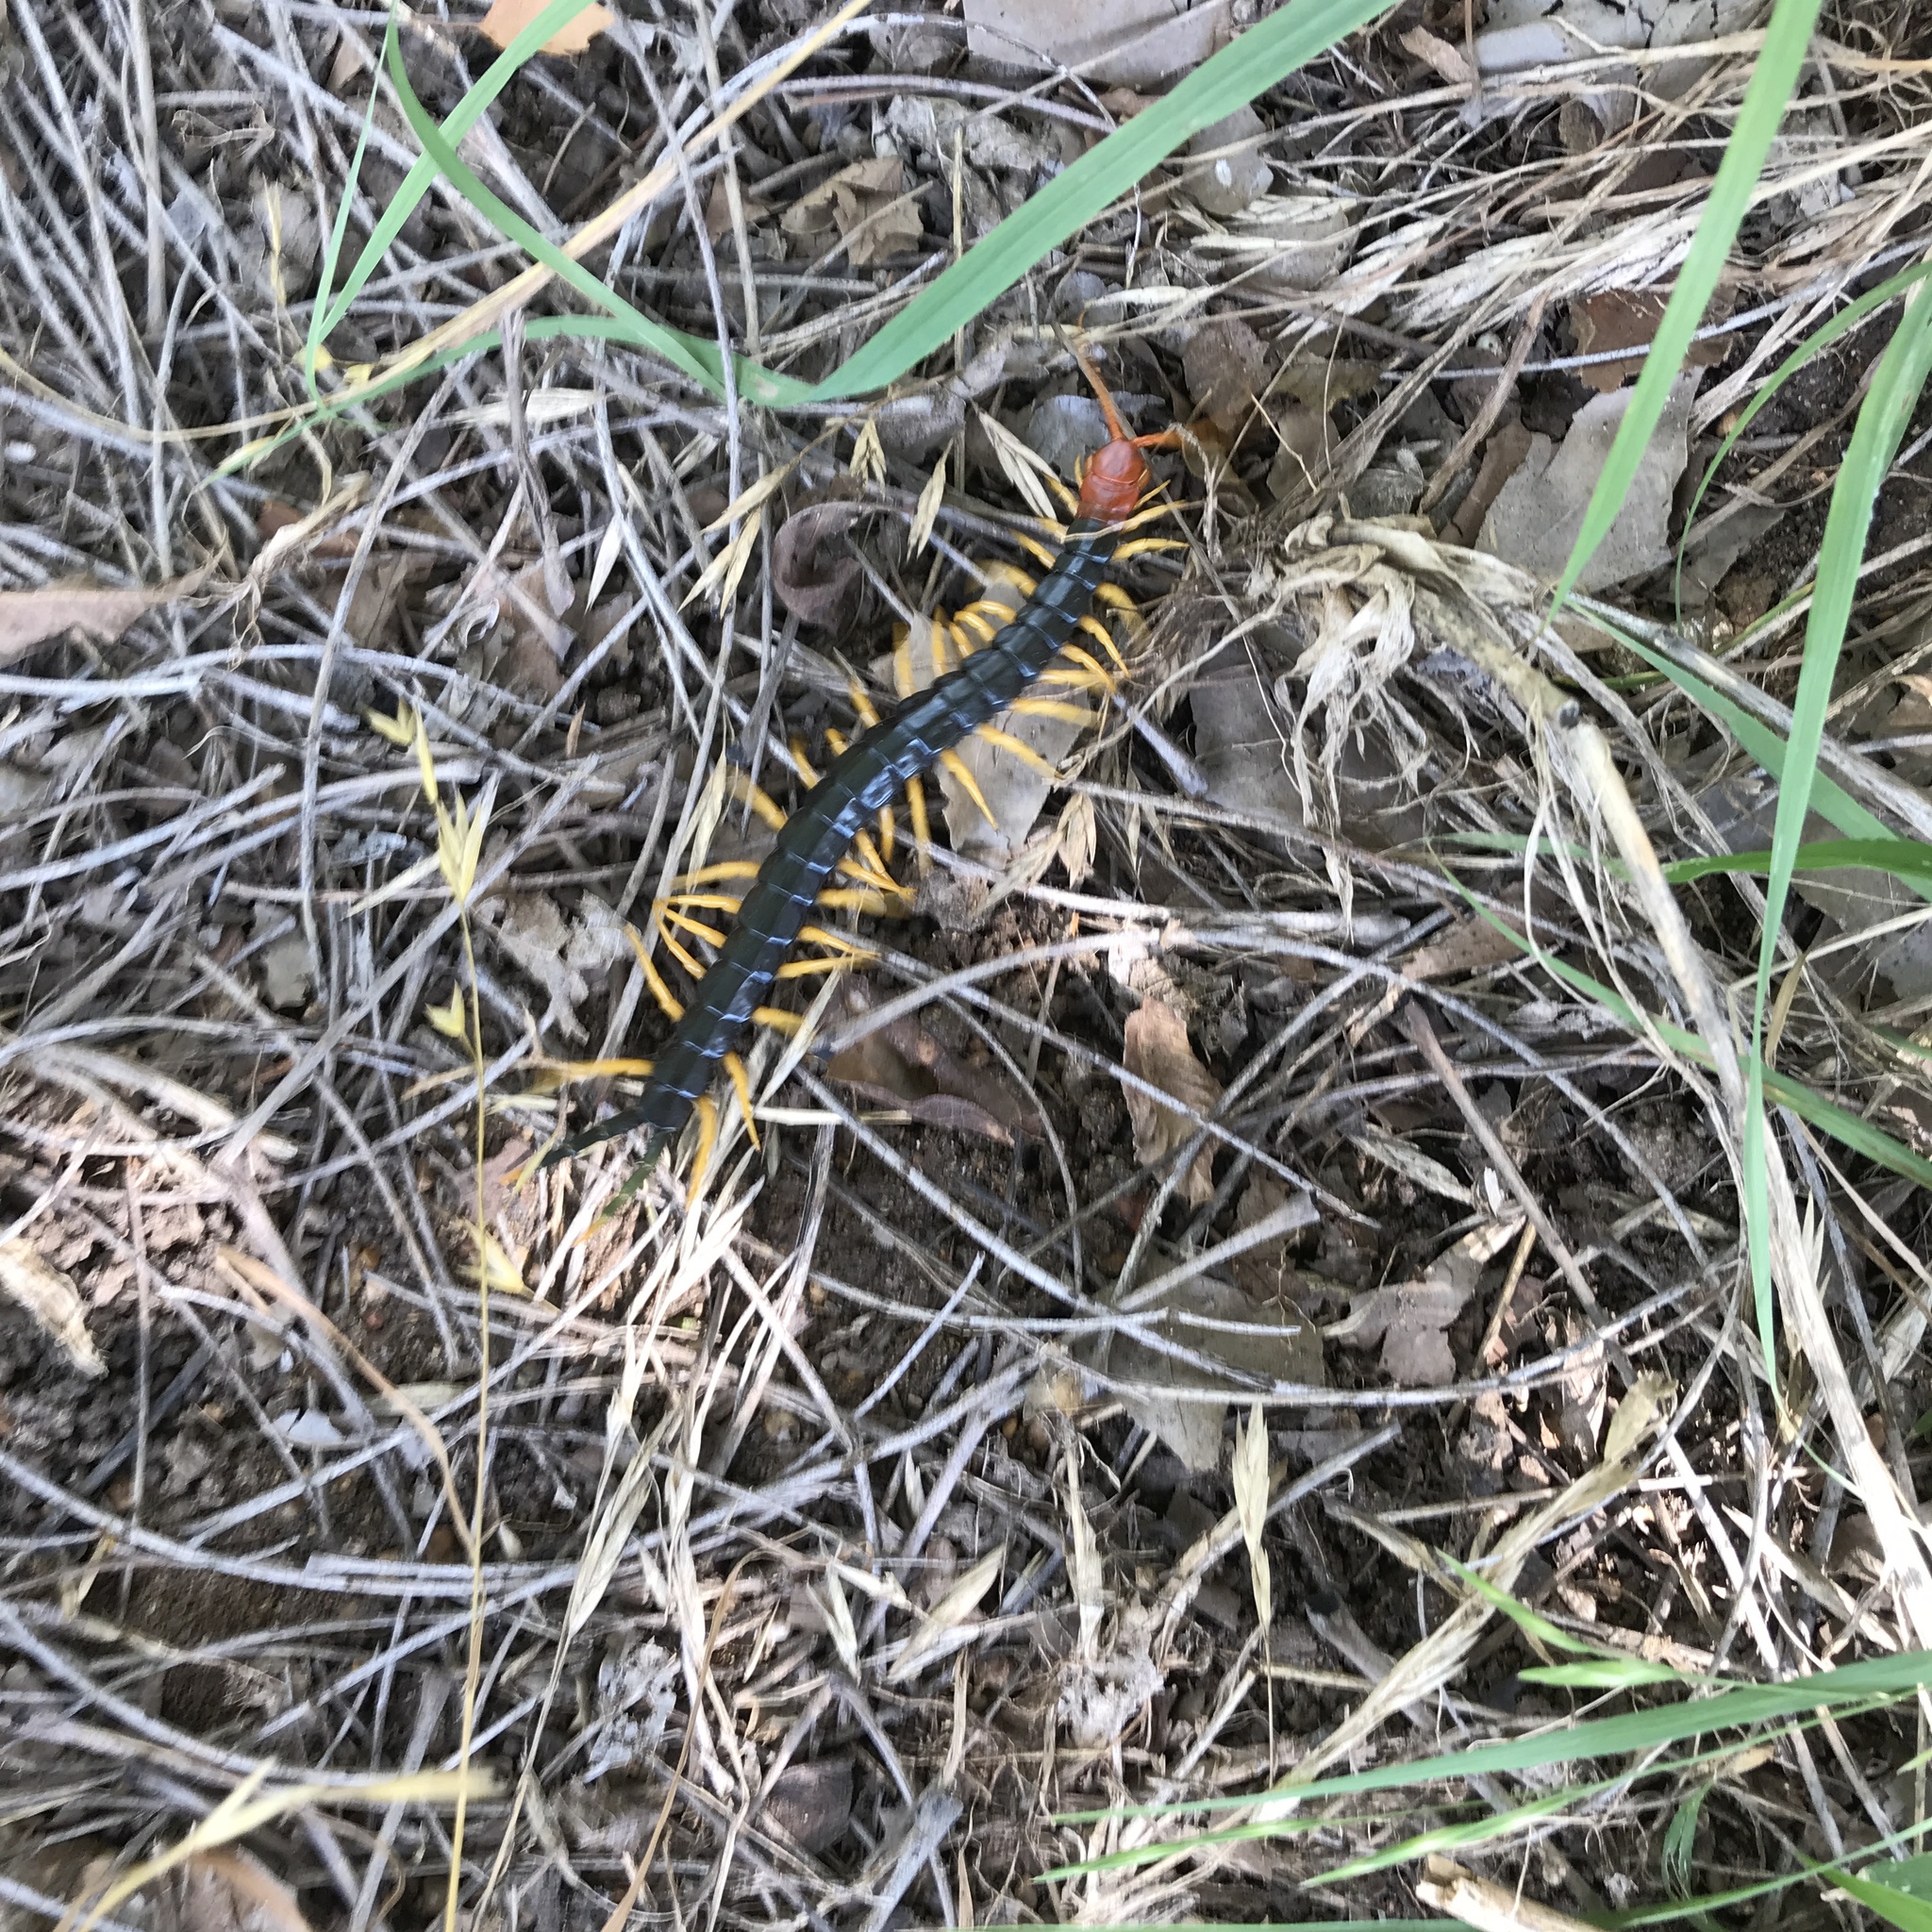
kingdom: Animalia
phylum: Arthropoda
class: Chilopoda
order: Scolopendromorpha
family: Scolopendridae
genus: Scolopendra
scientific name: Scolopendra heros
